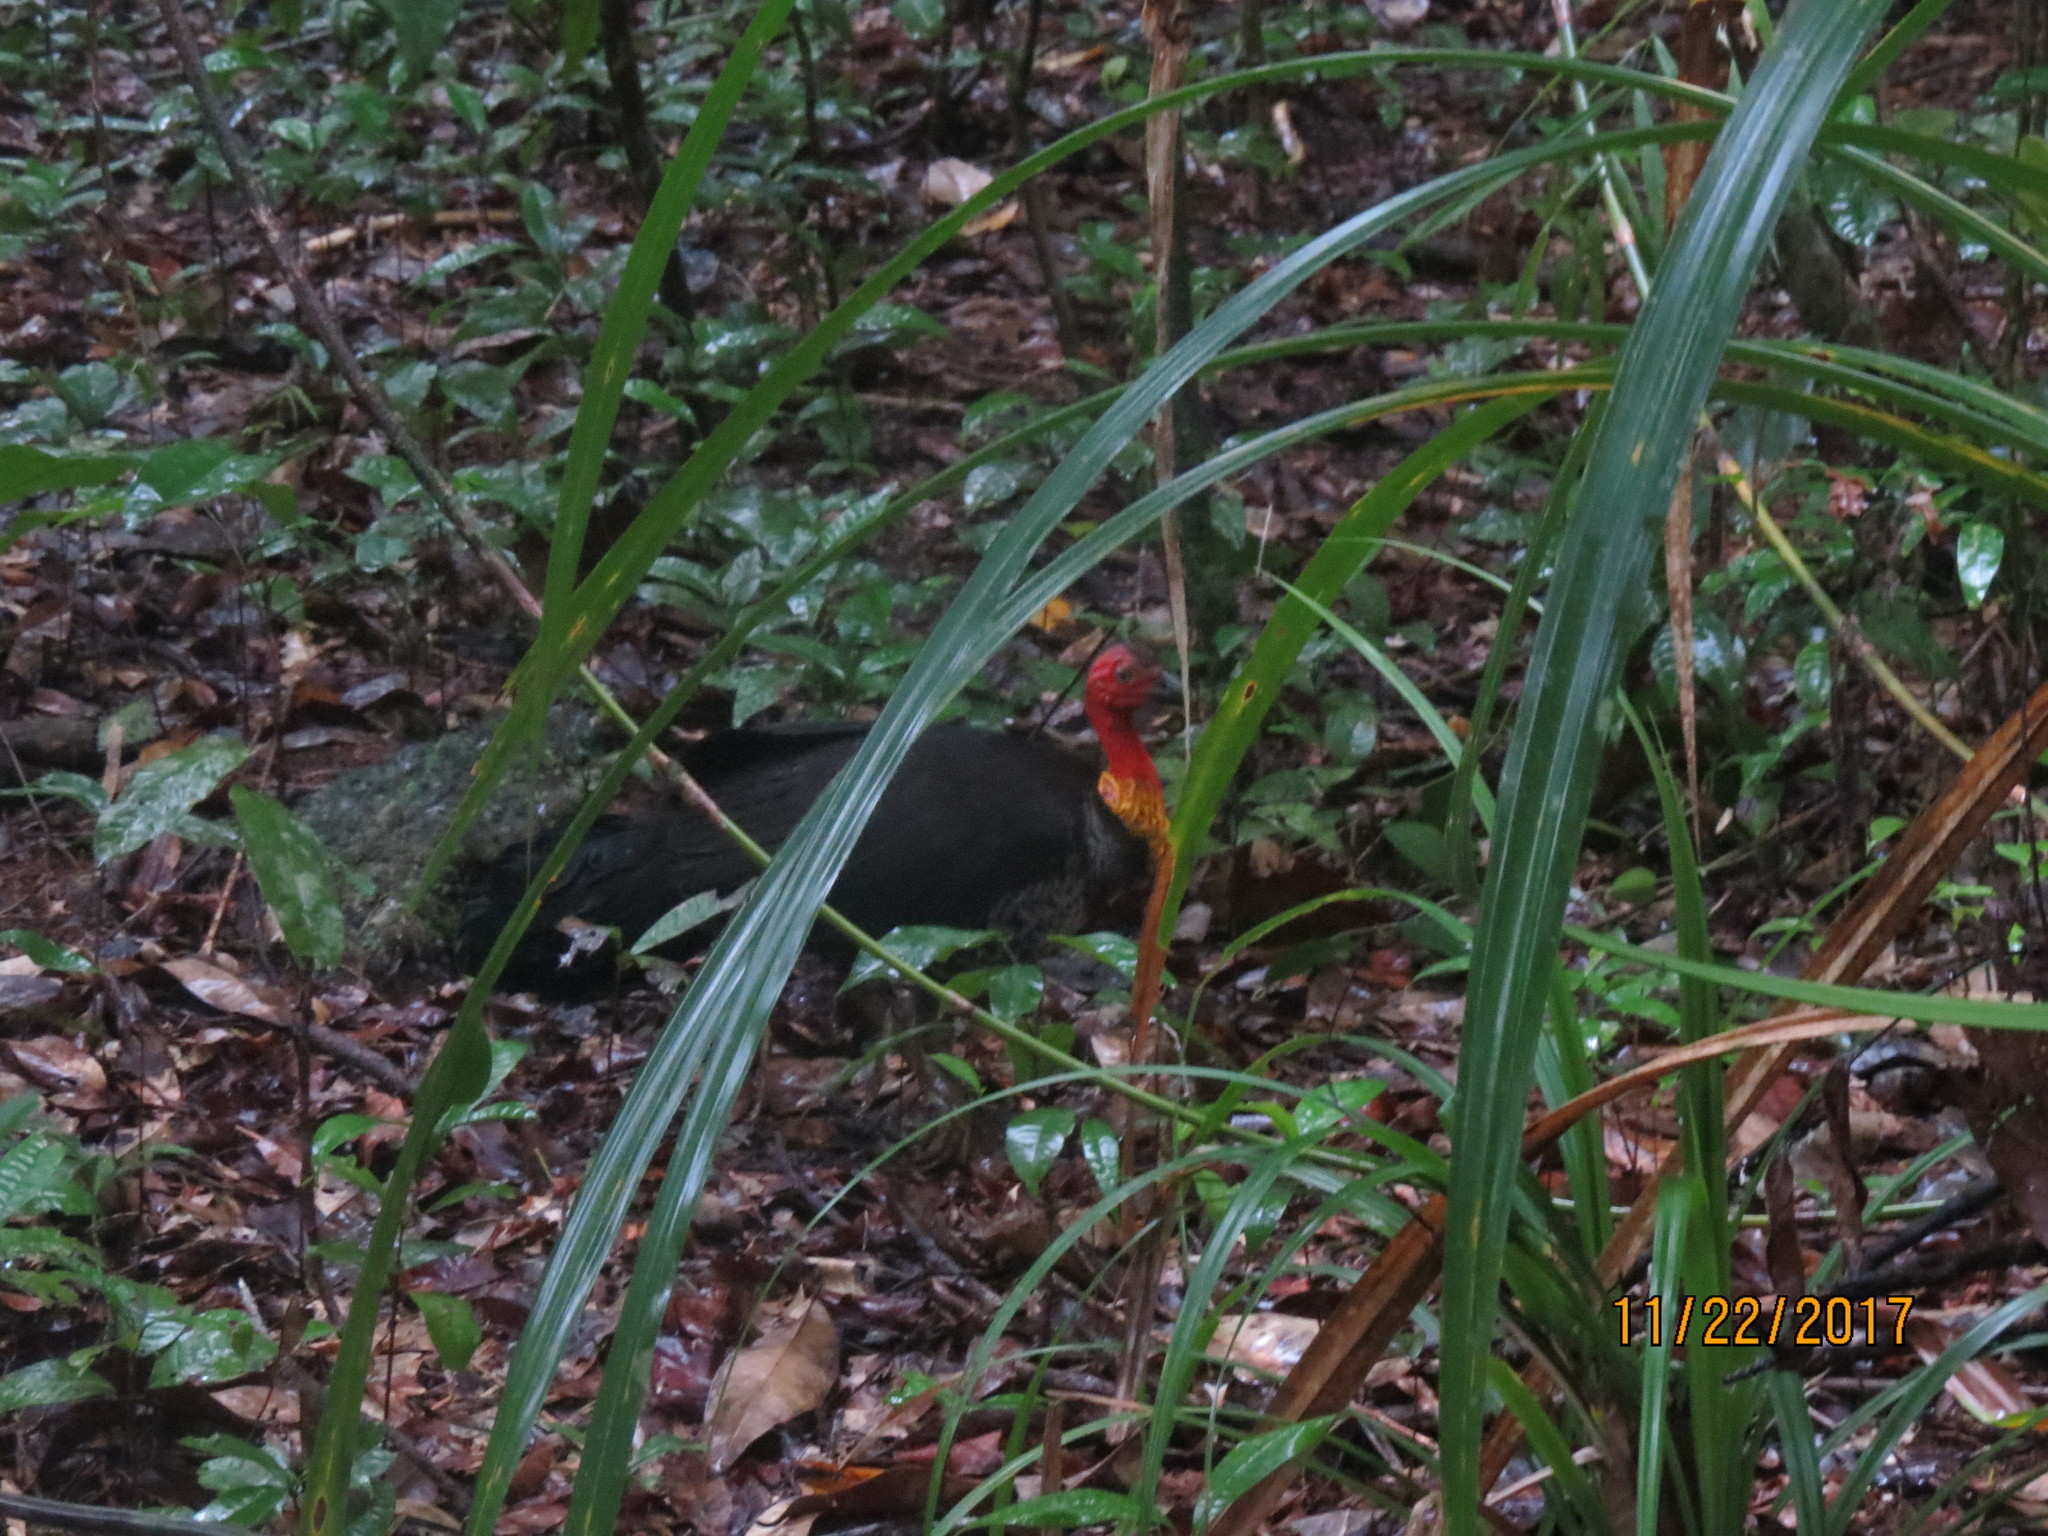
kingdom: Animalia
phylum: Chordata
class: Aves
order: Galliformes
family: Megapodiidae
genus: Alectura
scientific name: Alectura lathami
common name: Australian brushturkey
